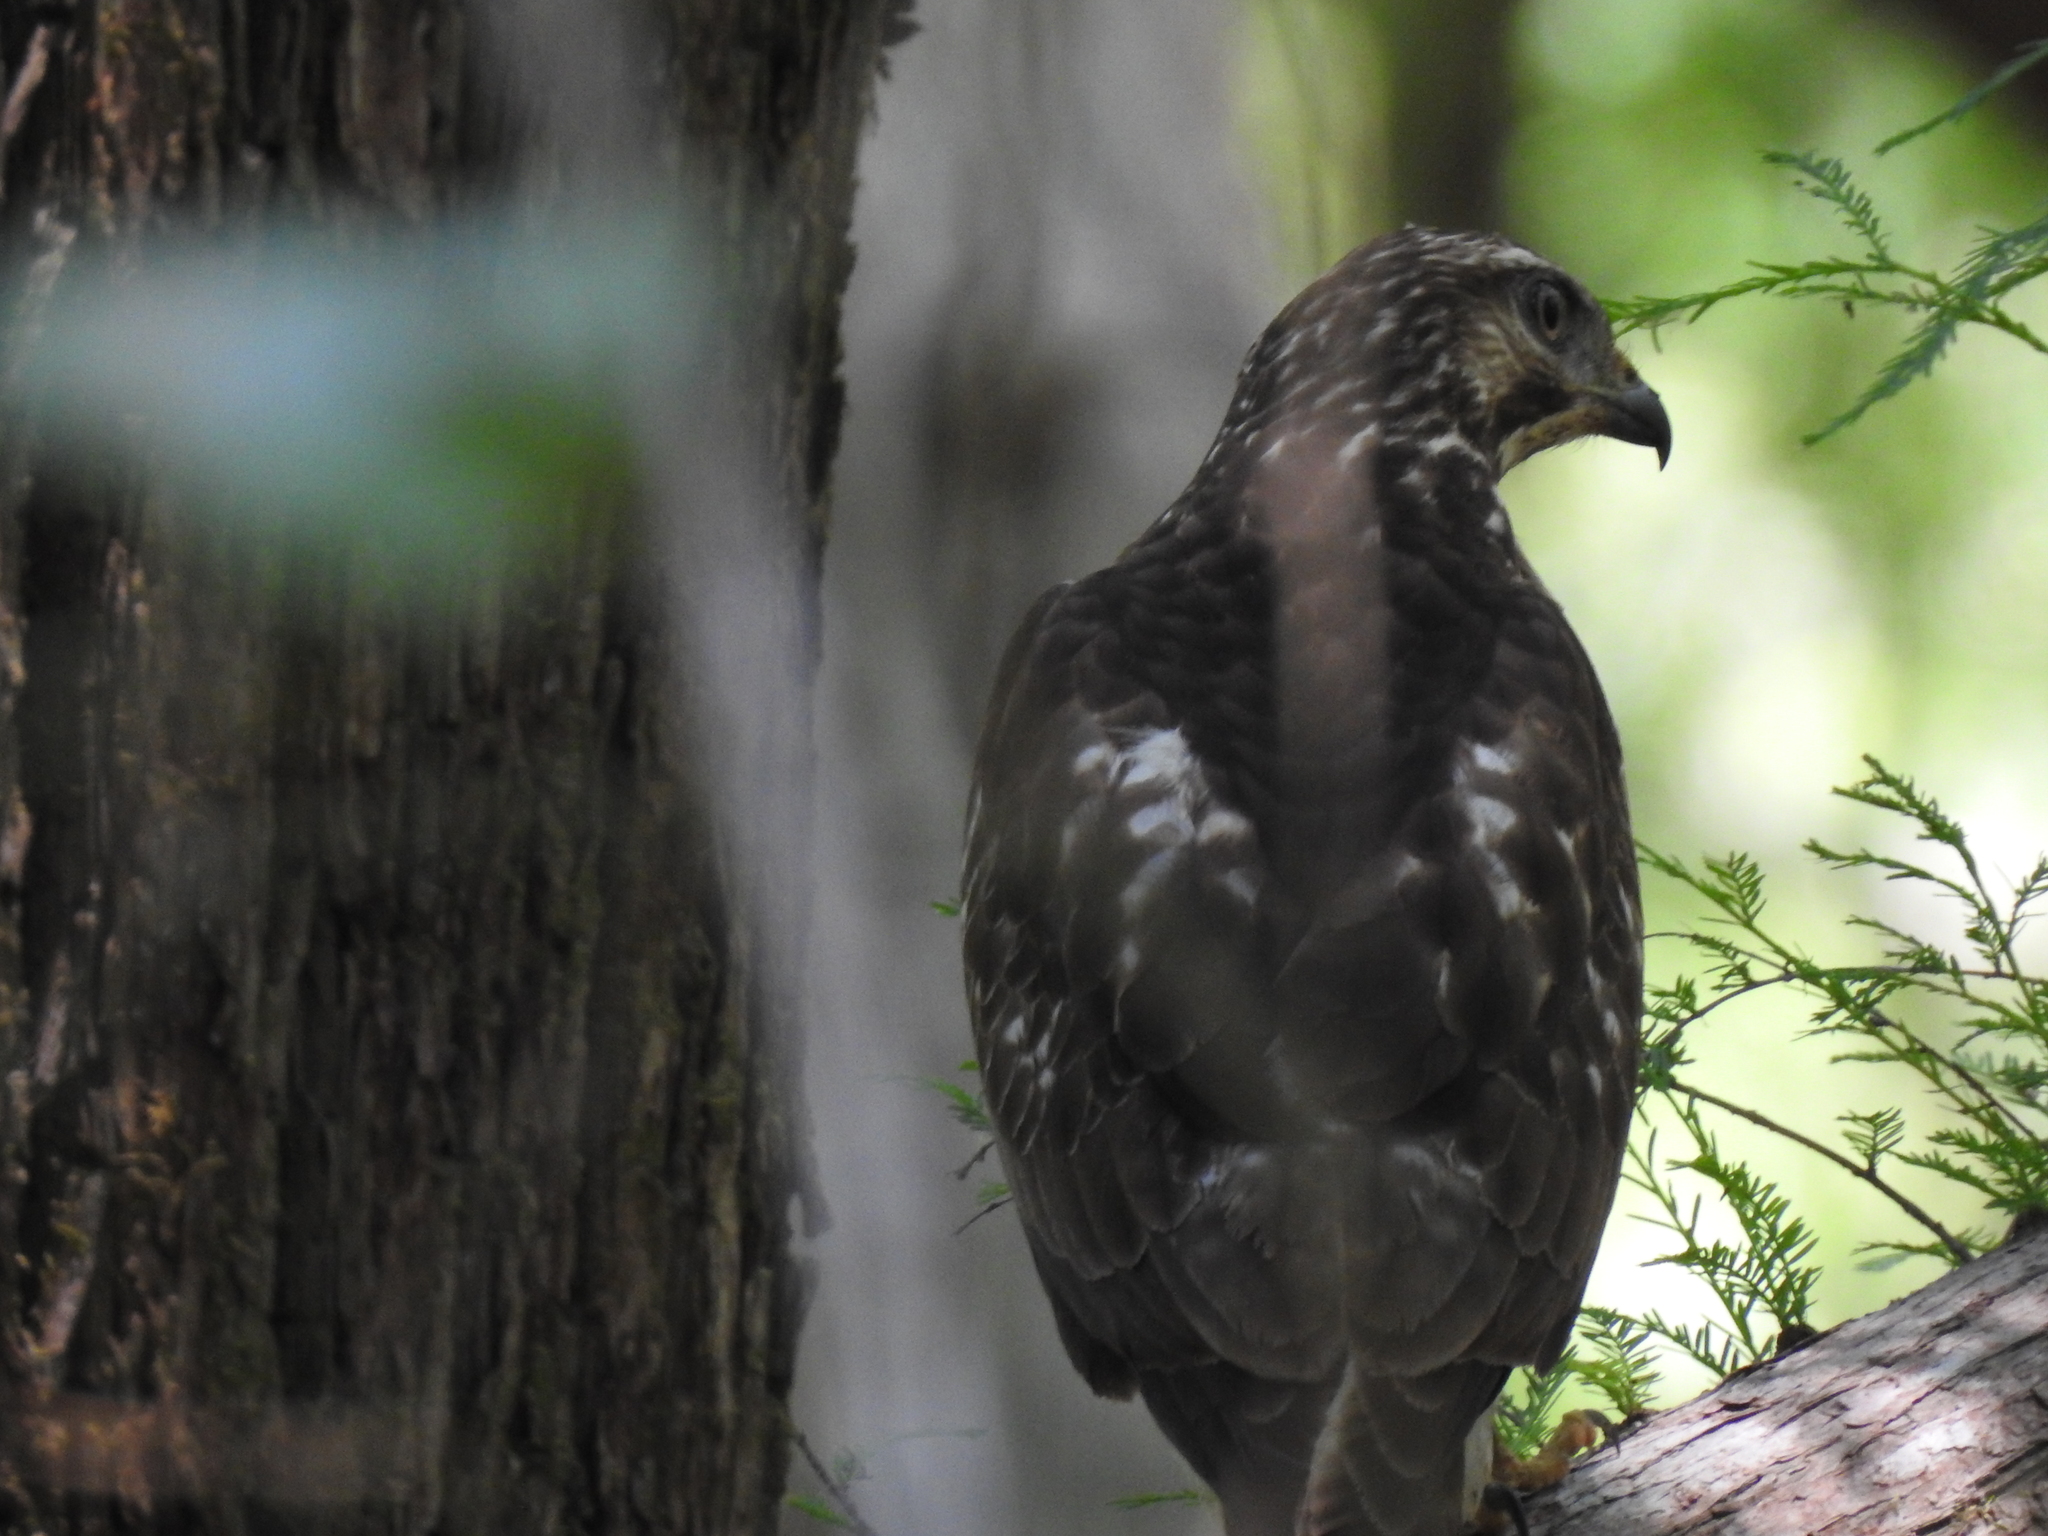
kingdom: Animalia
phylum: Chordata
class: Aves
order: Accipitriformes
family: Accipitridae
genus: Buteo
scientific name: Buteo platypterus
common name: Broad-winged hawk
